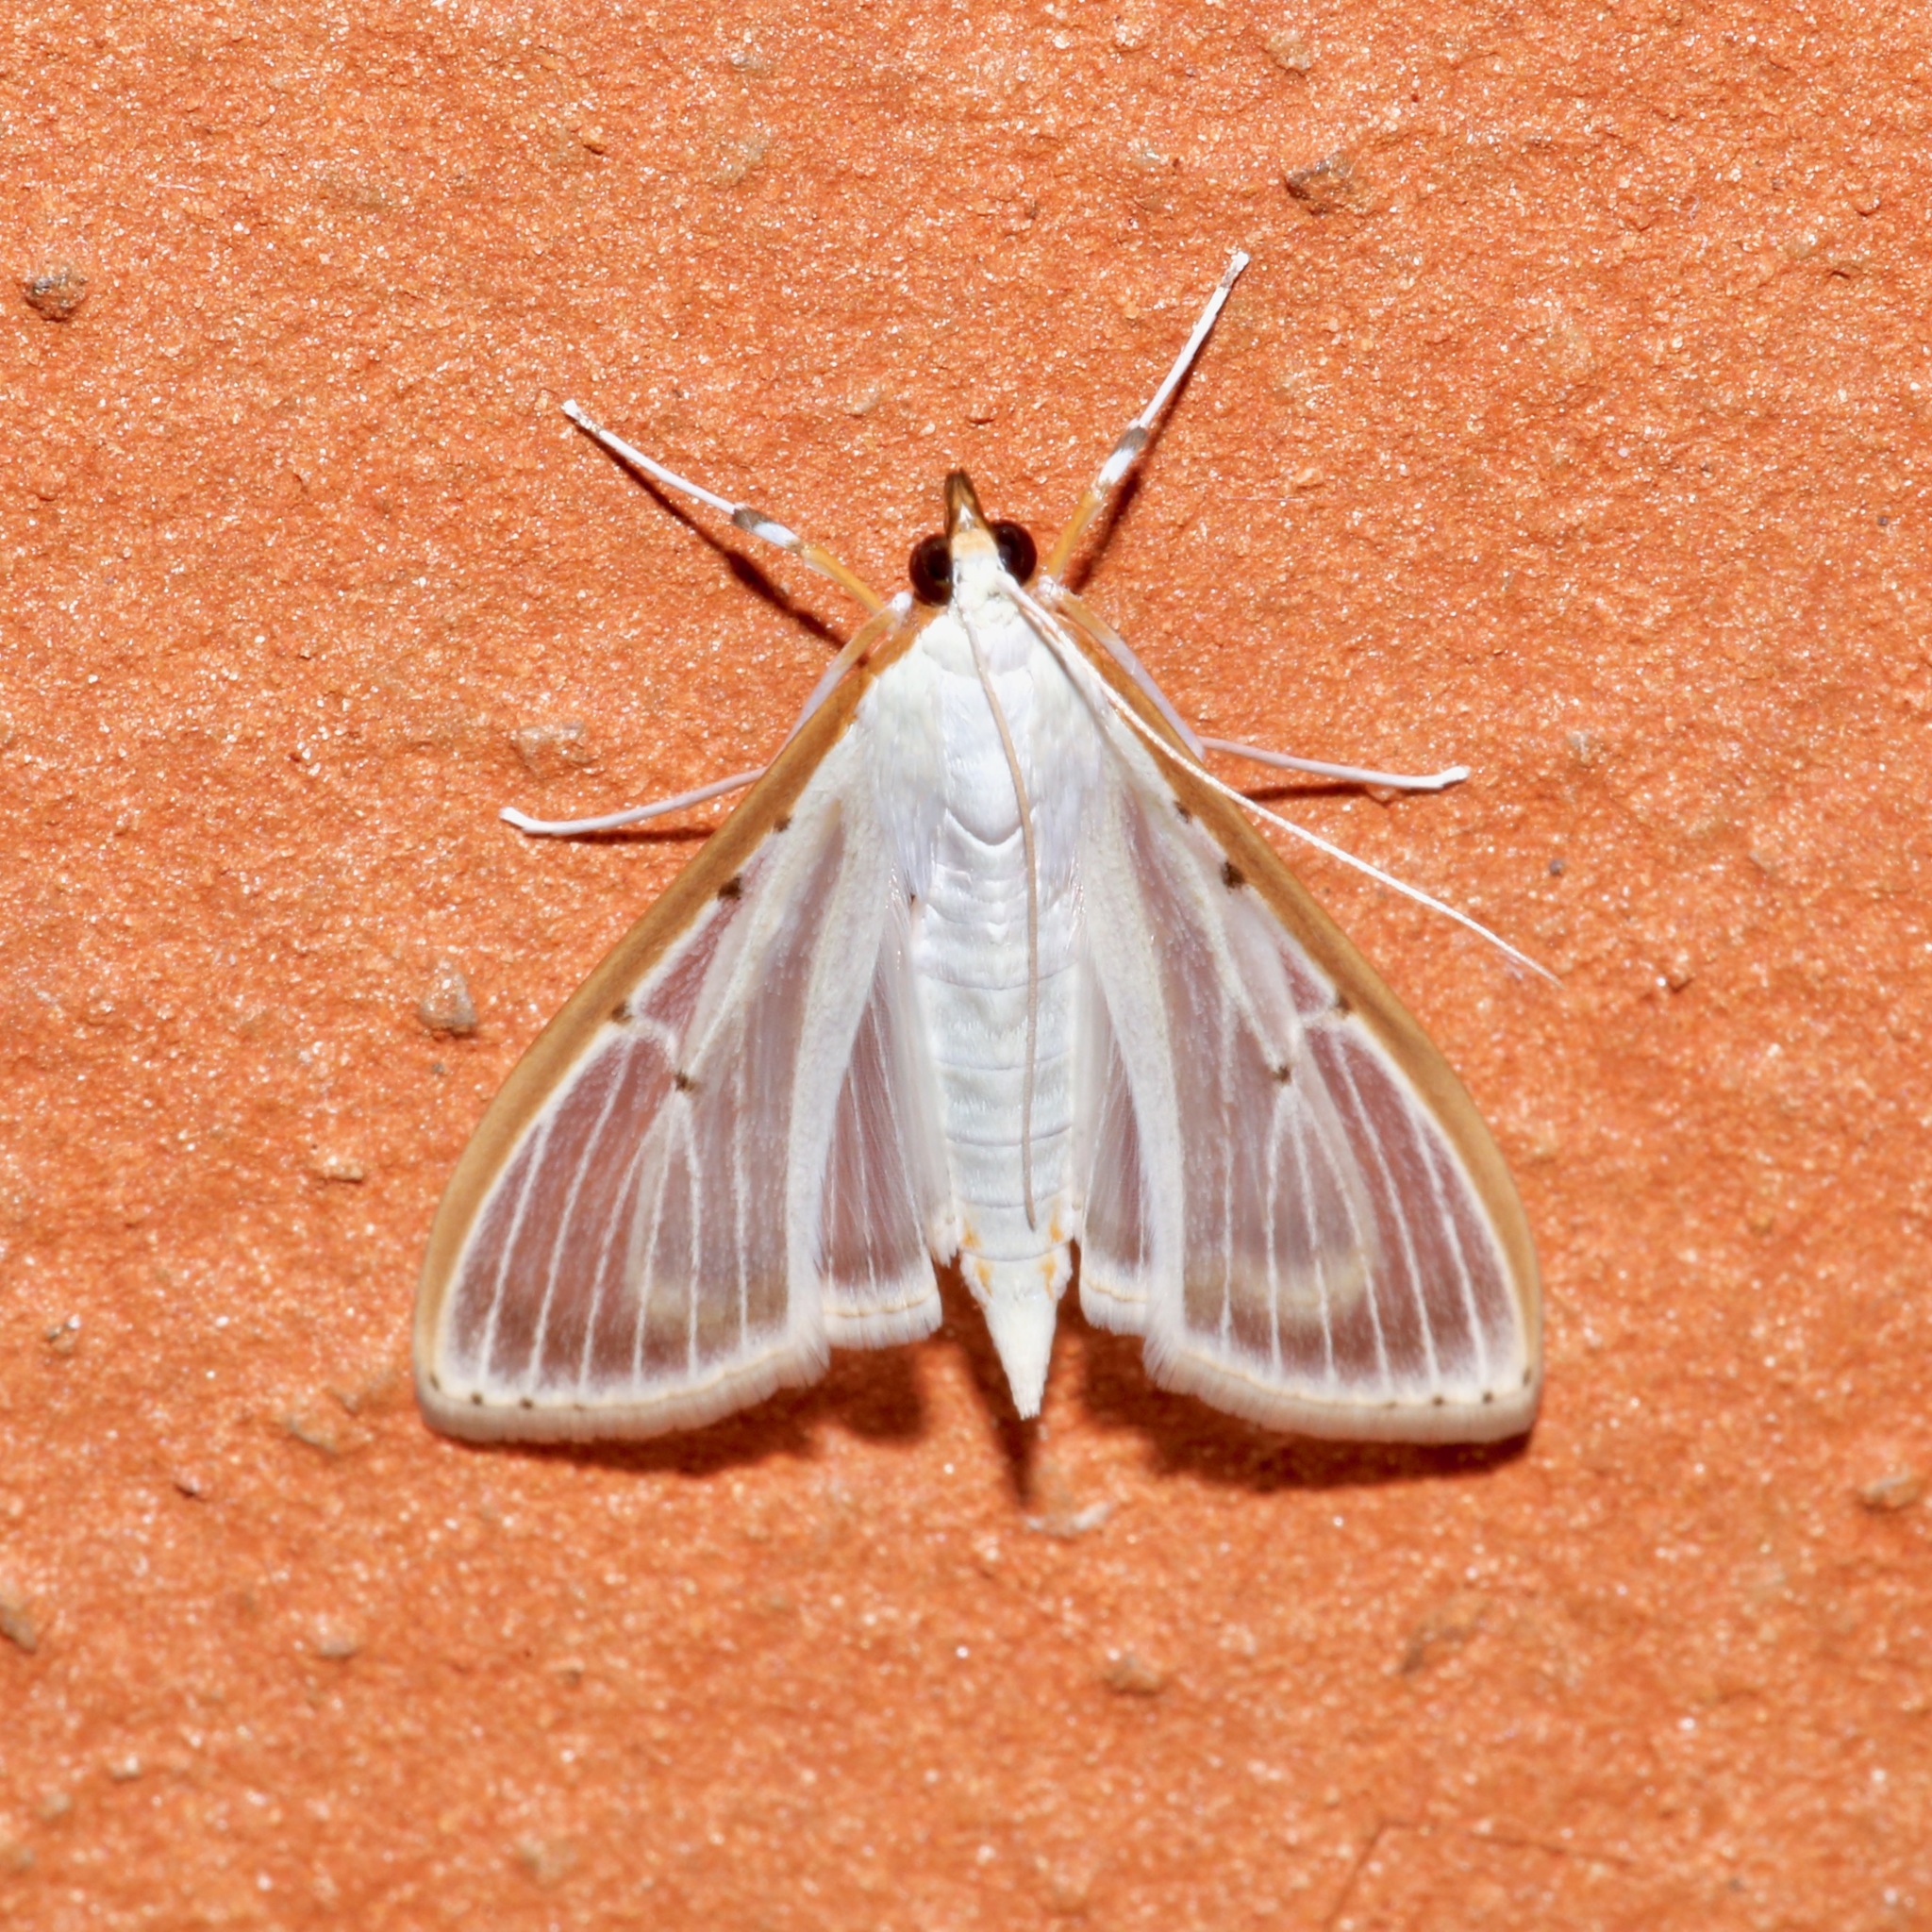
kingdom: Animalia
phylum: Arthropoda
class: Insecta
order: Lepidoptera
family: Crambidae
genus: Palpita
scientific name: Palpita quadristigmalis
